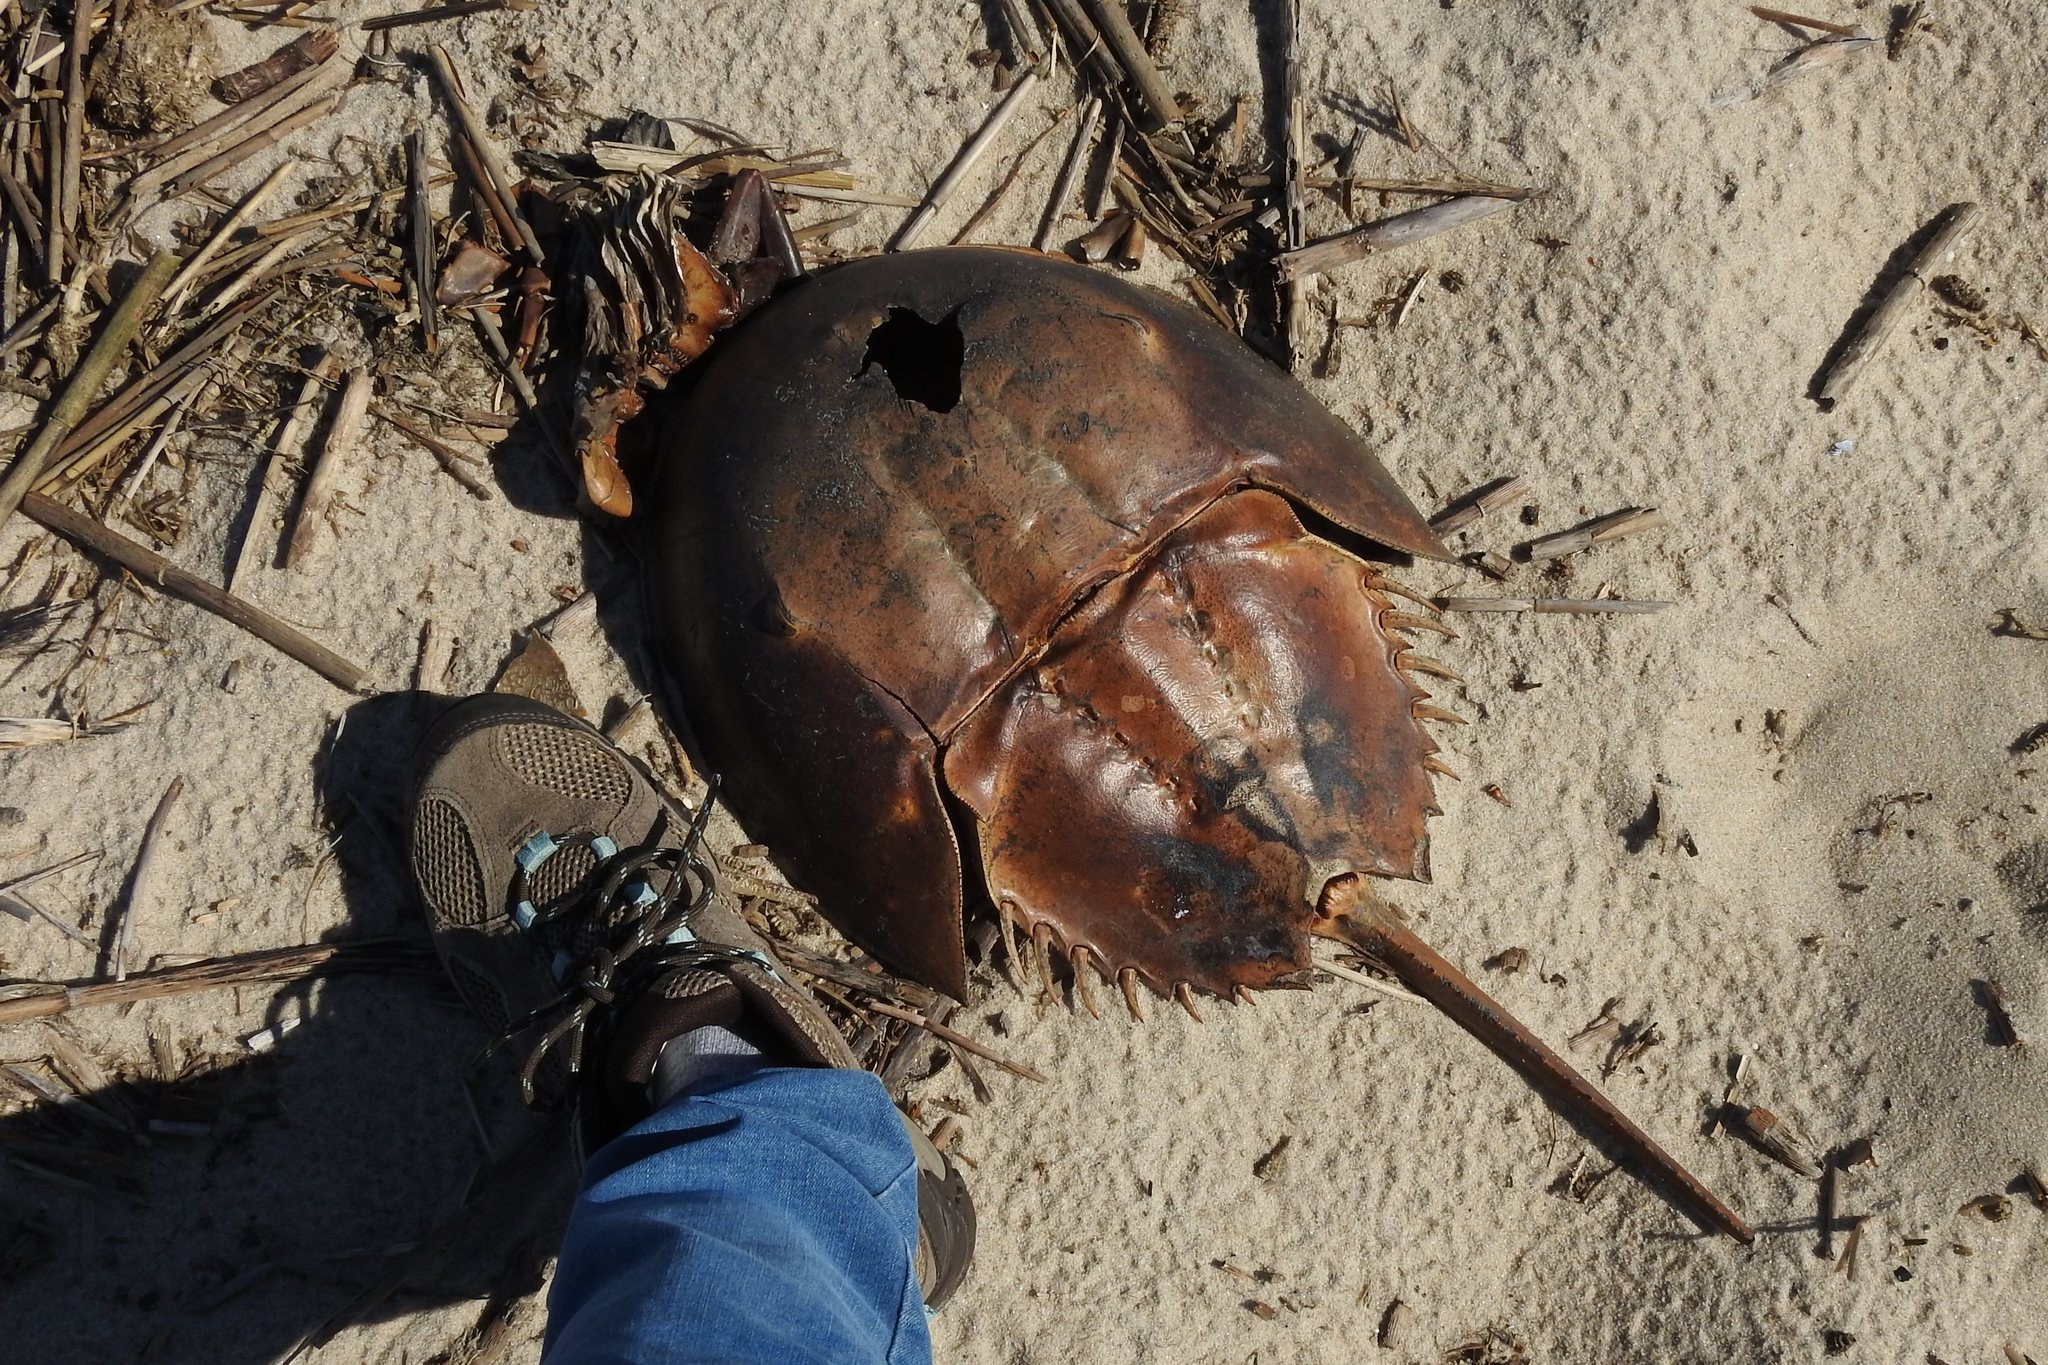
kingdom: Animalia
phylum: Arthropoda
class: Merostomata
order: Xiphosurida
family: Limulidae
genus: Limulus
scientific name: Limulus polyphemus
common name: Horseshoe crab
